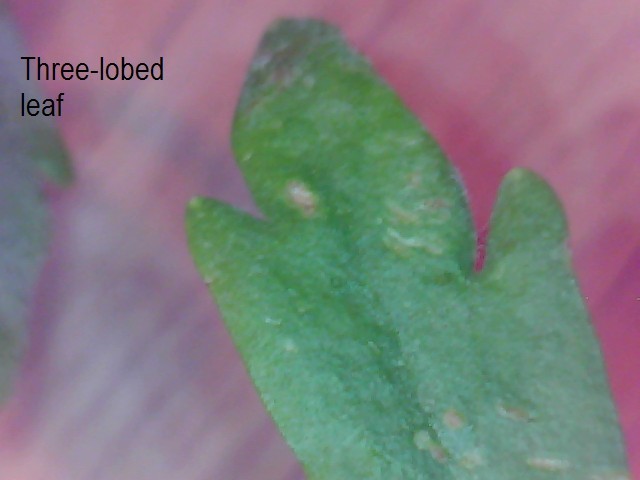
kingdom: Plantae
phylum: Tracheophyta
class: Magnoliopsida
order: Ranunculales
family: Ranunculaceae
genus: Ranunculus
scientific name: Ranunculus sceleratus
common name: Celery-leaved buttercup
